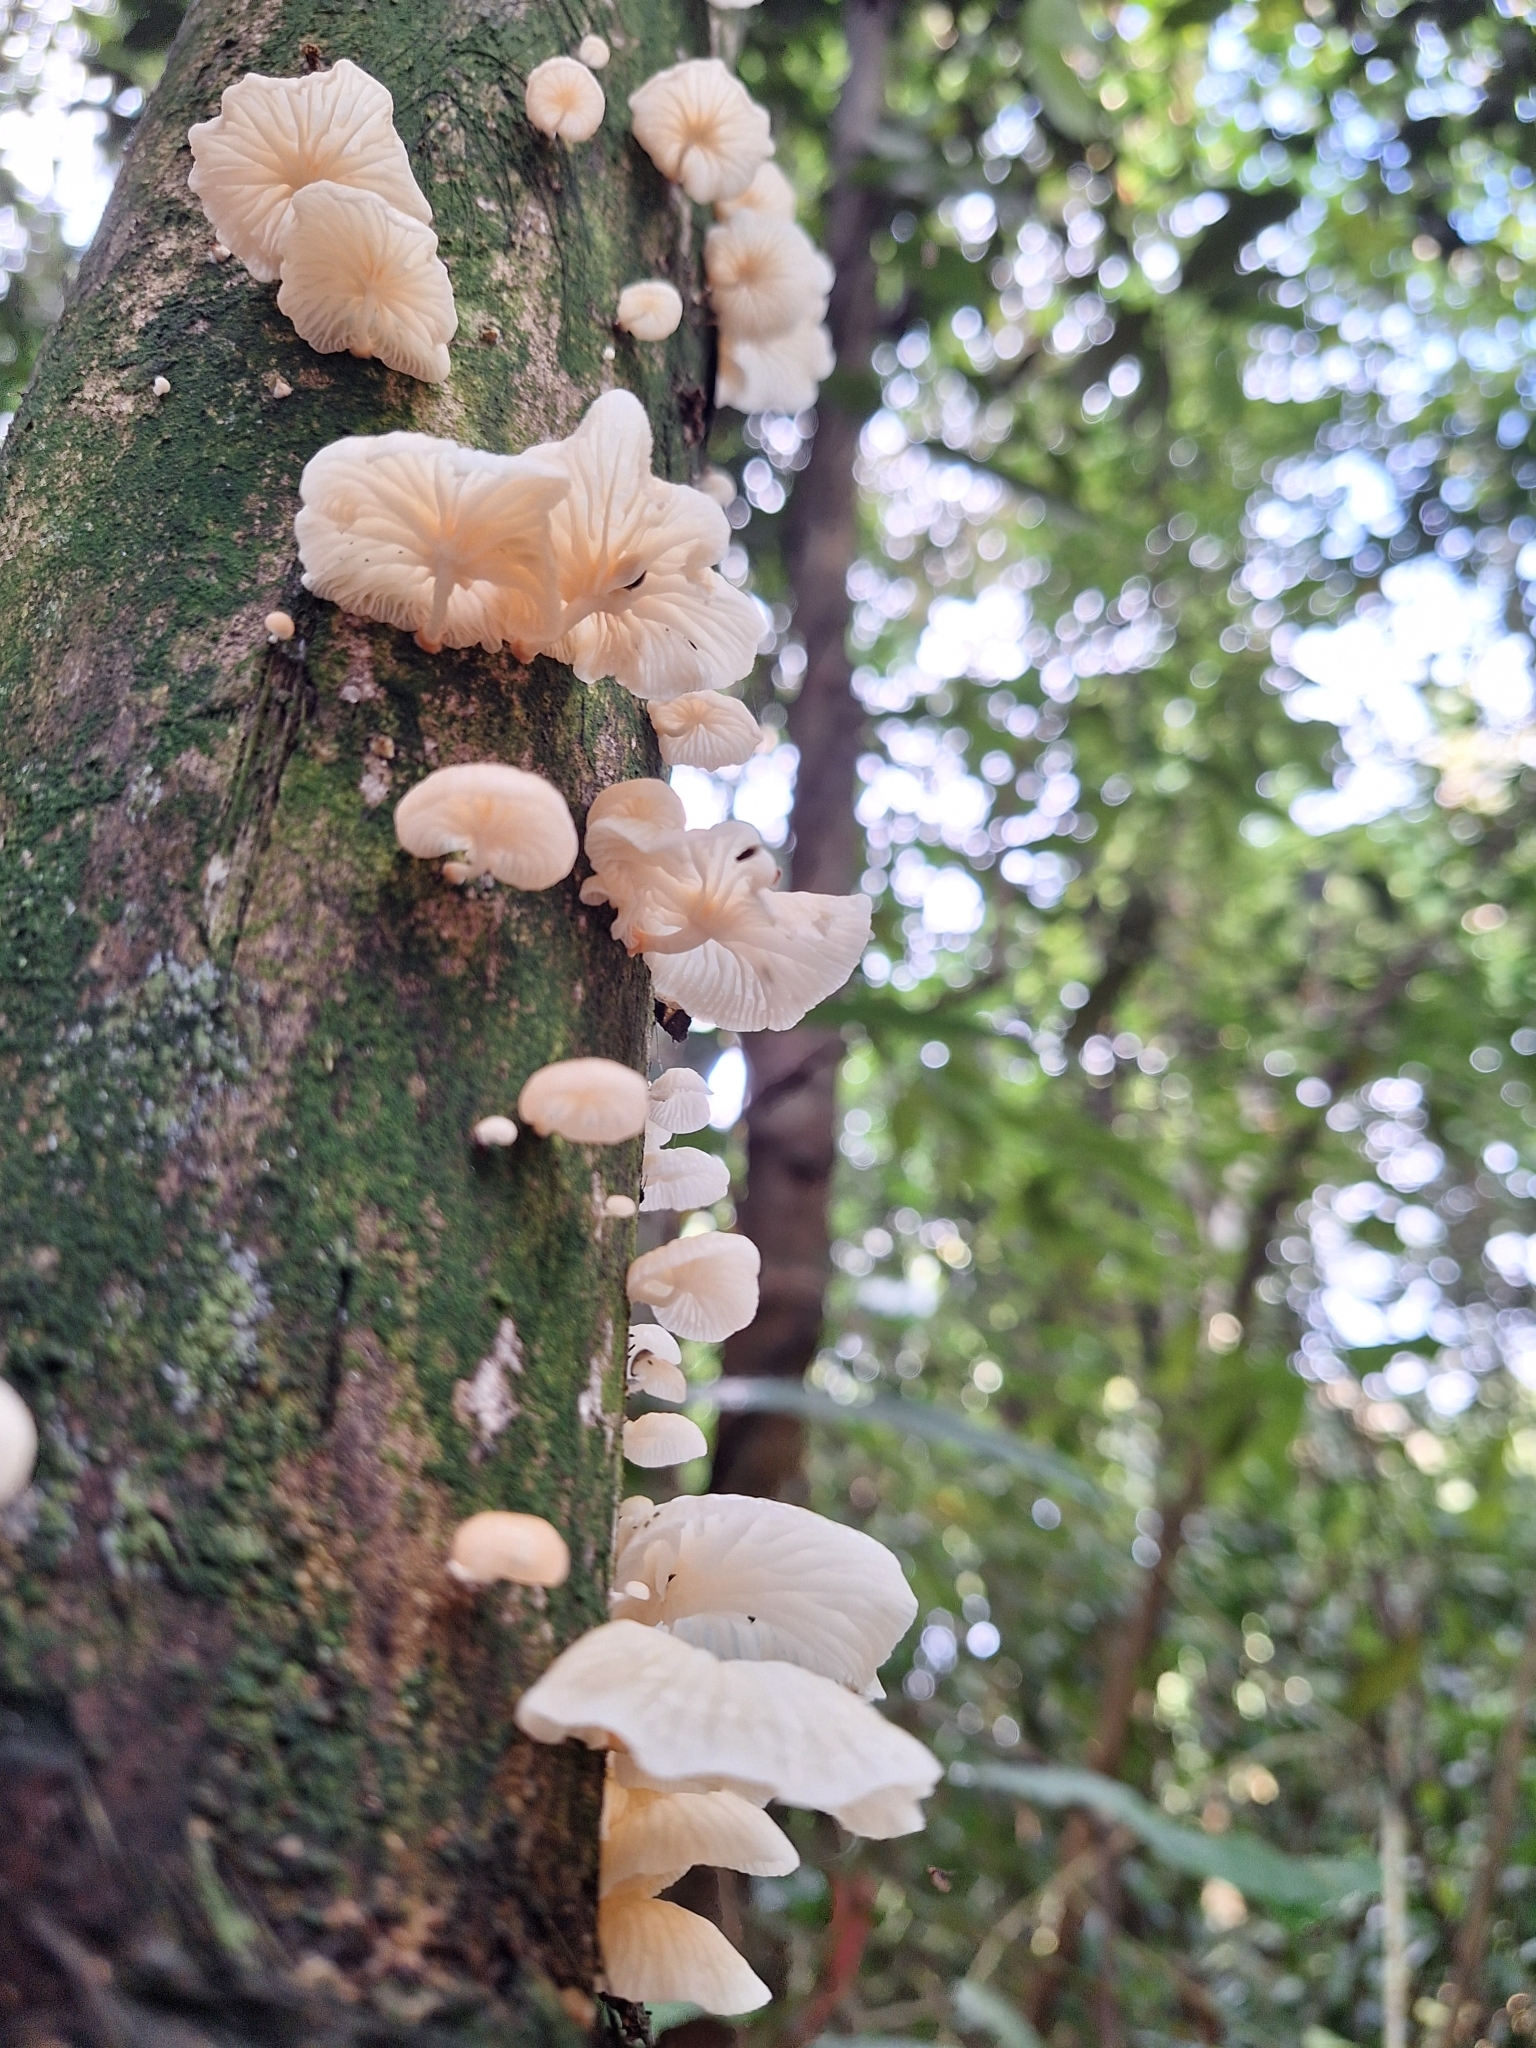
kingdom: Fungi
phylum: Basidiomycota
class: Agaricomycetes
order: Agaricales
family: Omphalotaceae
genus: Marasmiellus
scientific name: Marasmiellus candidus
